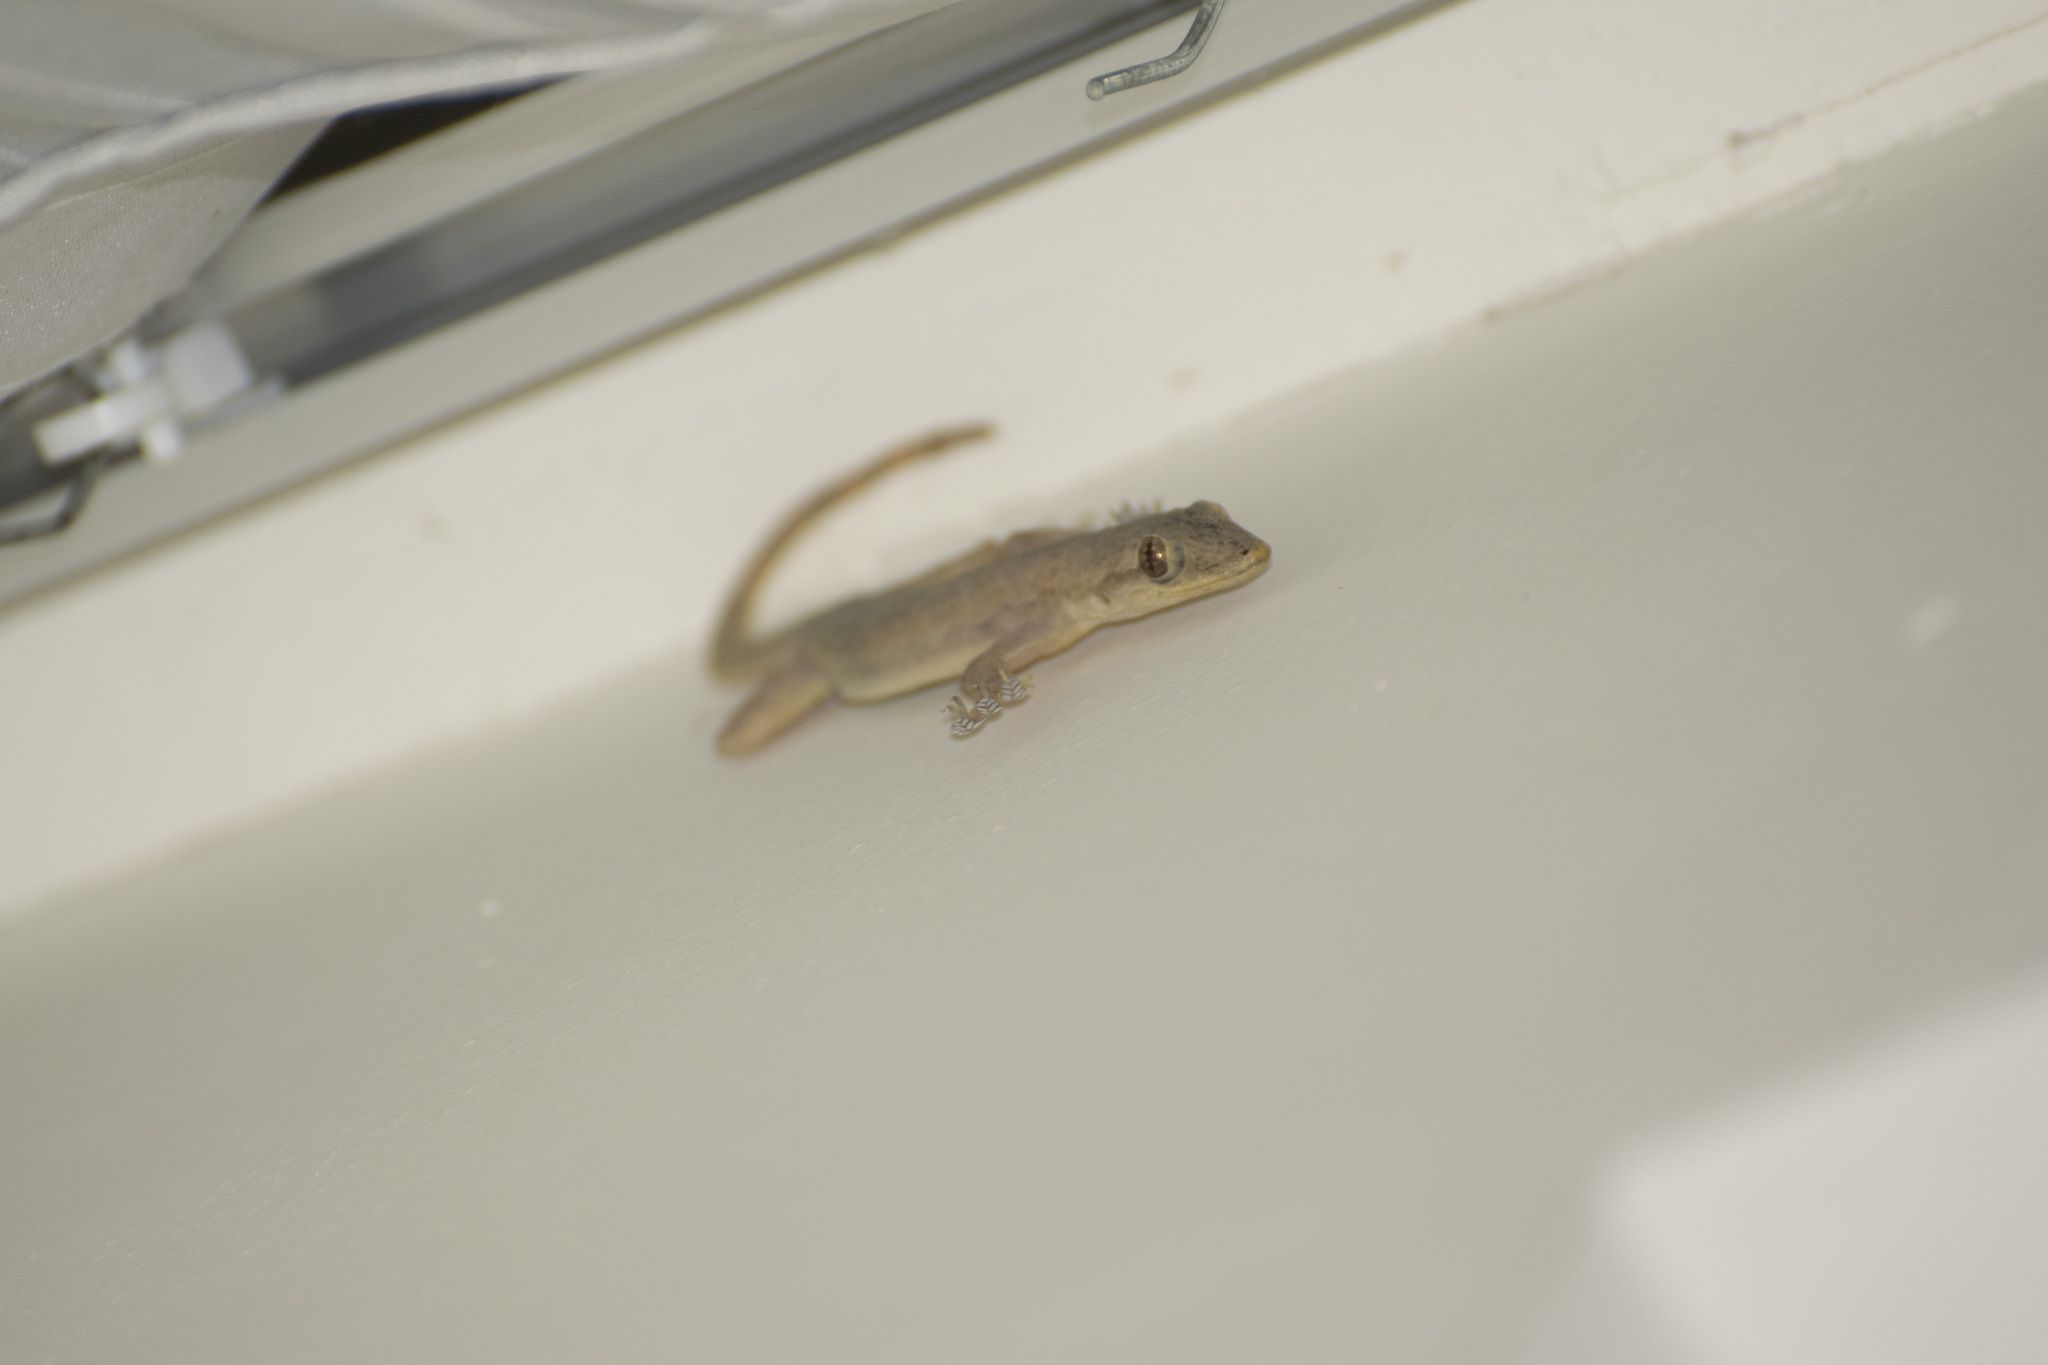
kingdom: Animalia
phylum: Chordata
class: Squamata
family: Gekkonidae
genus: Hemidactylus
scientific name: Hemidactylus platyurus
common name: Flat-tailed house gecko
